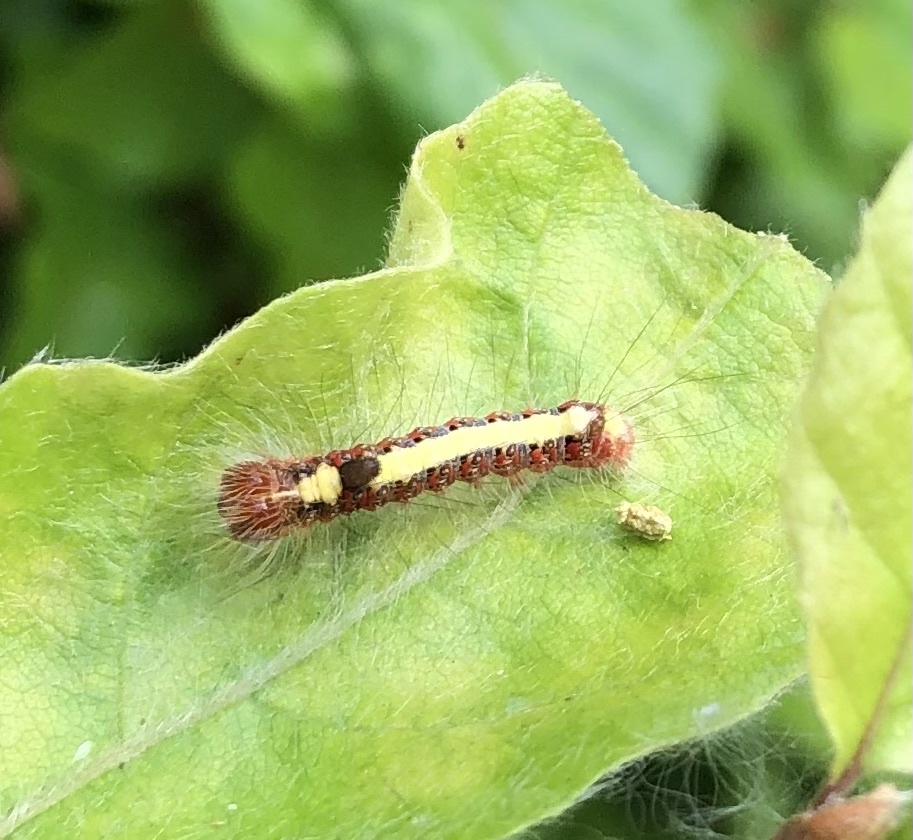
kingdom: Animalia
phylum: Arthropoda
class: Insecta
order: Lepidoptera
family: Noctuidae
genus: Acronicta
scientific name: Acronicta psi
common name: Grey dagger
